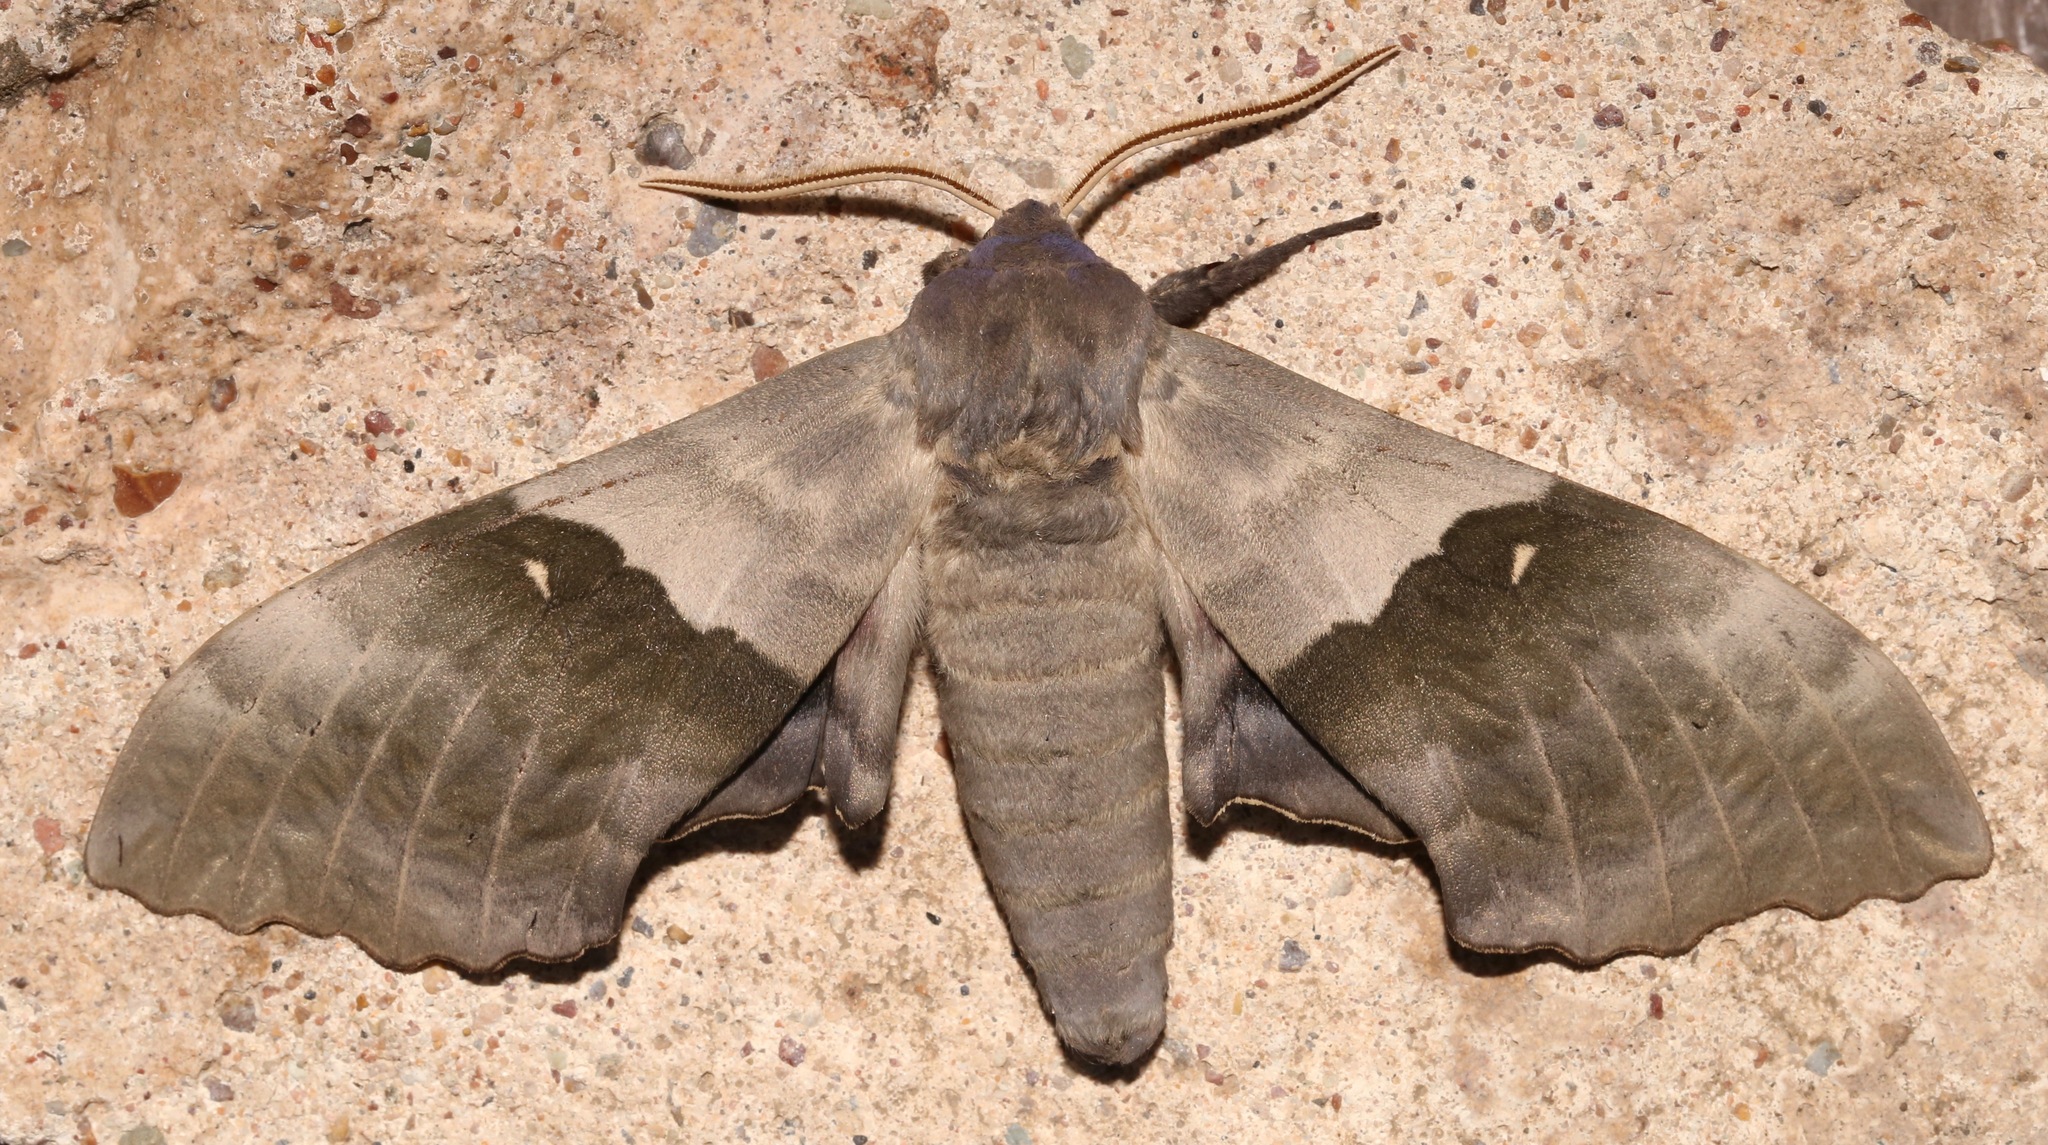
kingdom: Animalia
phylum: Arthropoda
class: Insecta
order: Lepidoptera
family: Sphingidae
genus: Pachysphinx
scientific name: Pachysphinx modesta
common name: Big poplar sphinx
